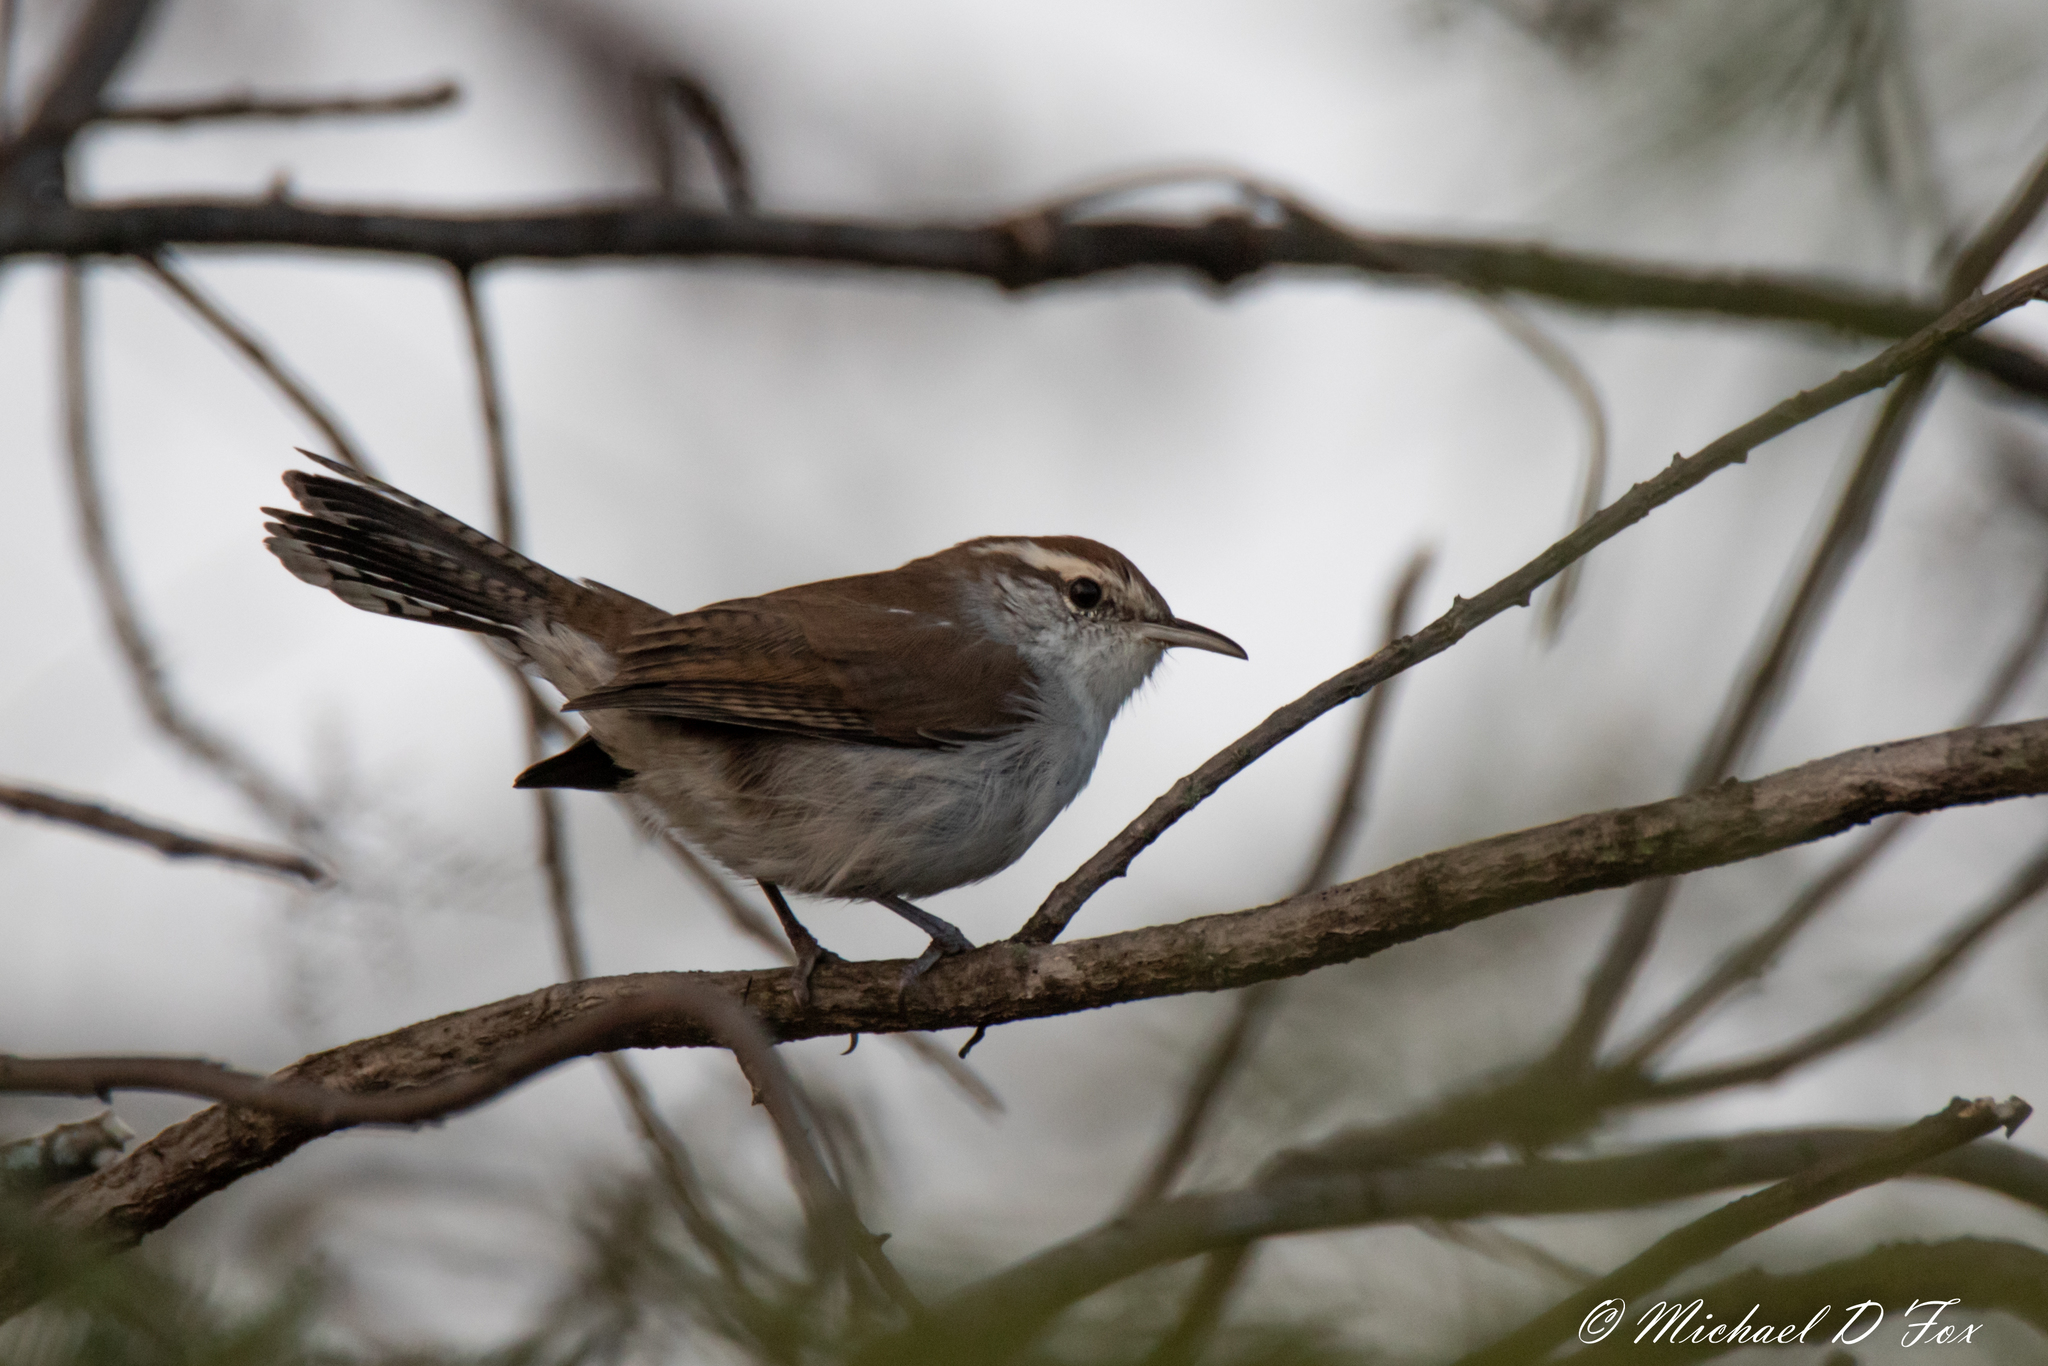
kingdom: Animalia
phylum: Chordata
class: Aves
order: Passeriformes
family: Troglodytidae
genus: Thryomanes
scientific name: Thryomanes bewickii
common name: Bewick's wren
